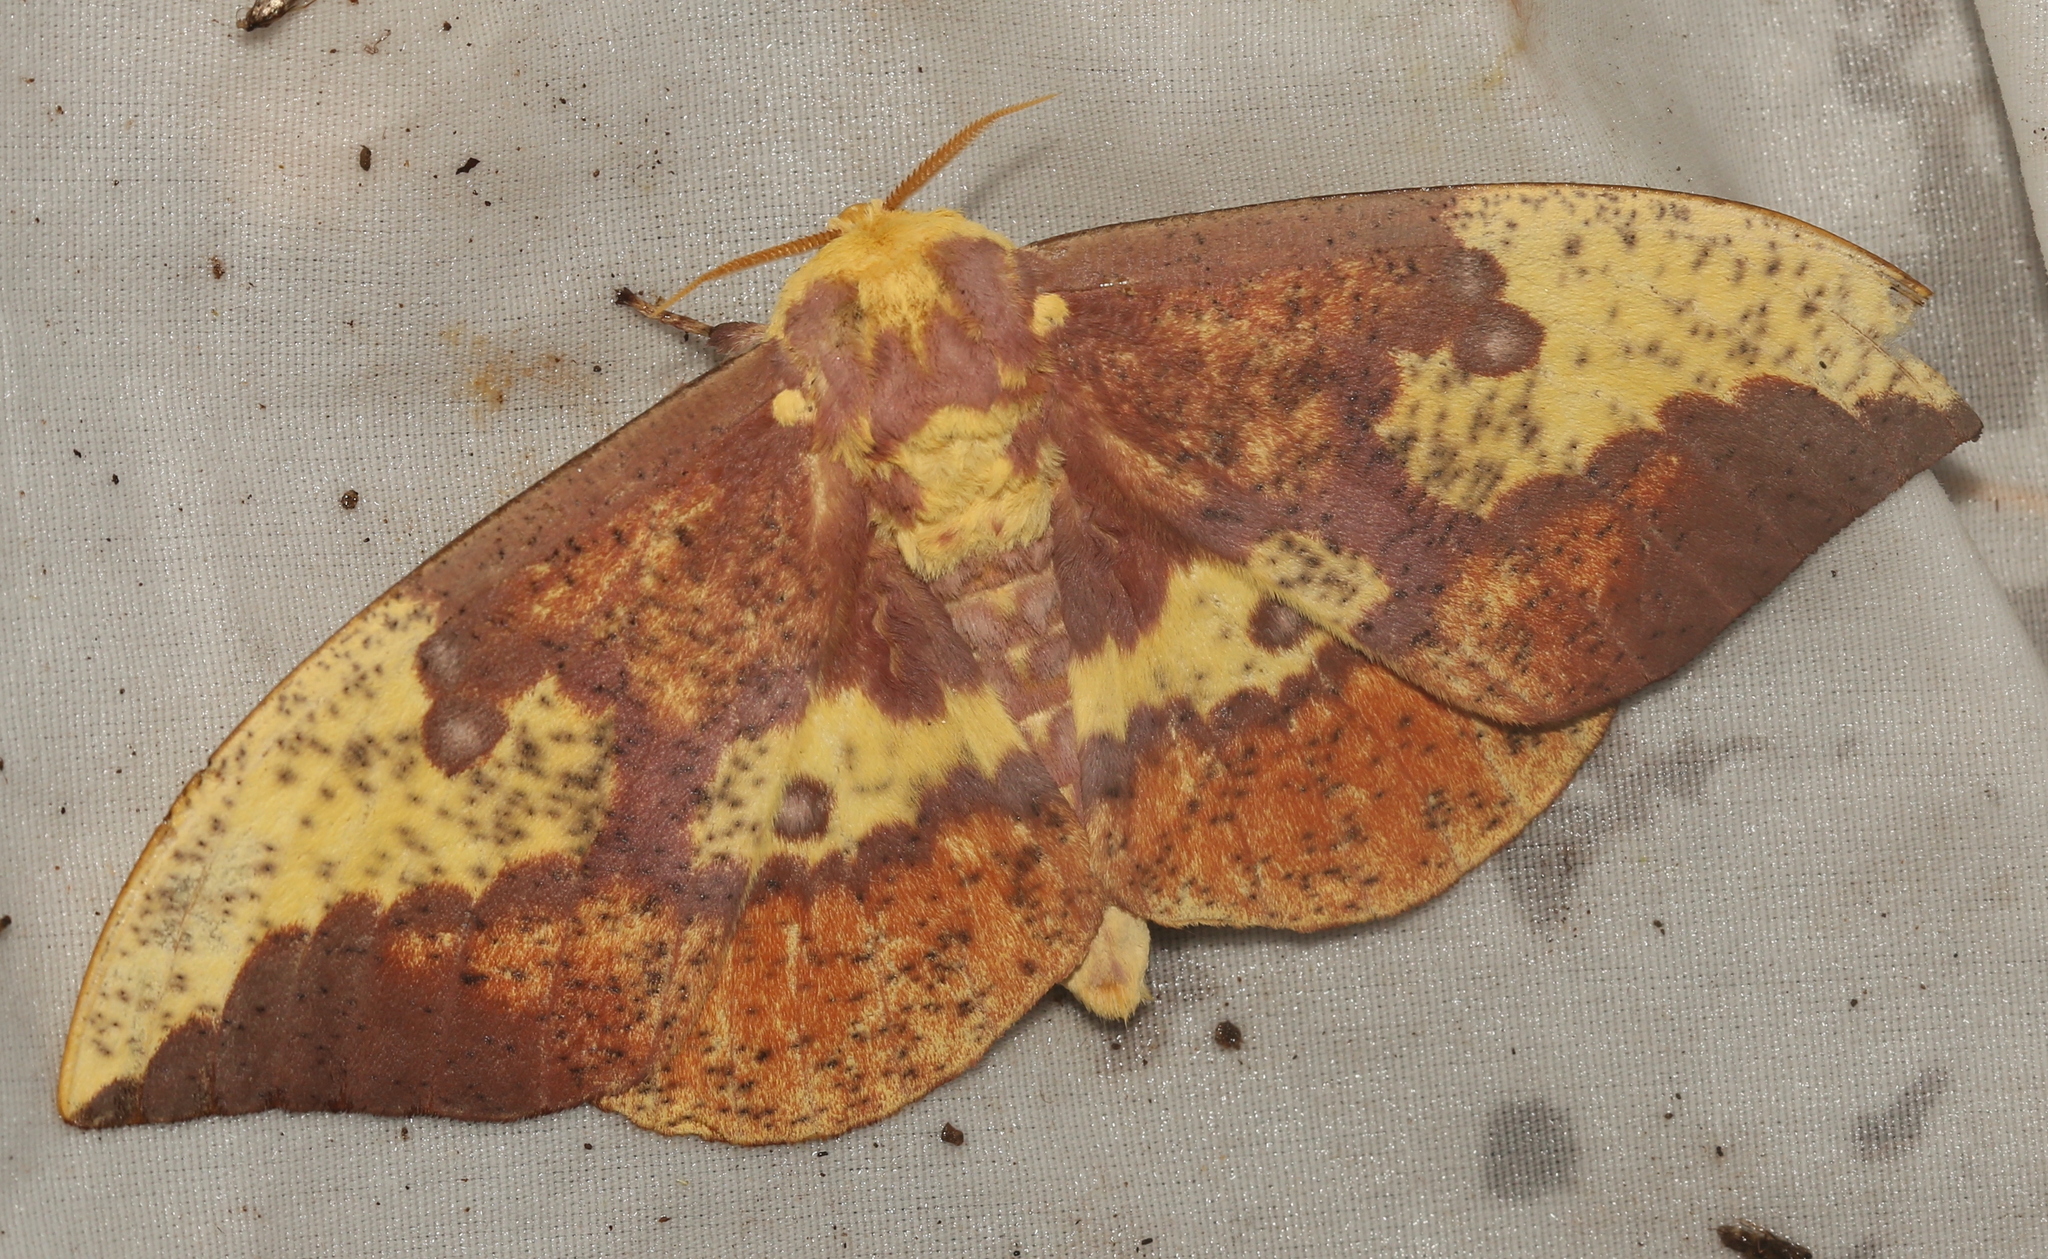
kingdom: Animalia
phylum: Arthropoda
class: Insecta
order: Lepidoptera
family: Saturniidae
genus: Eacles
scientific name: Eacles imperialis
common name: Imperial moth
